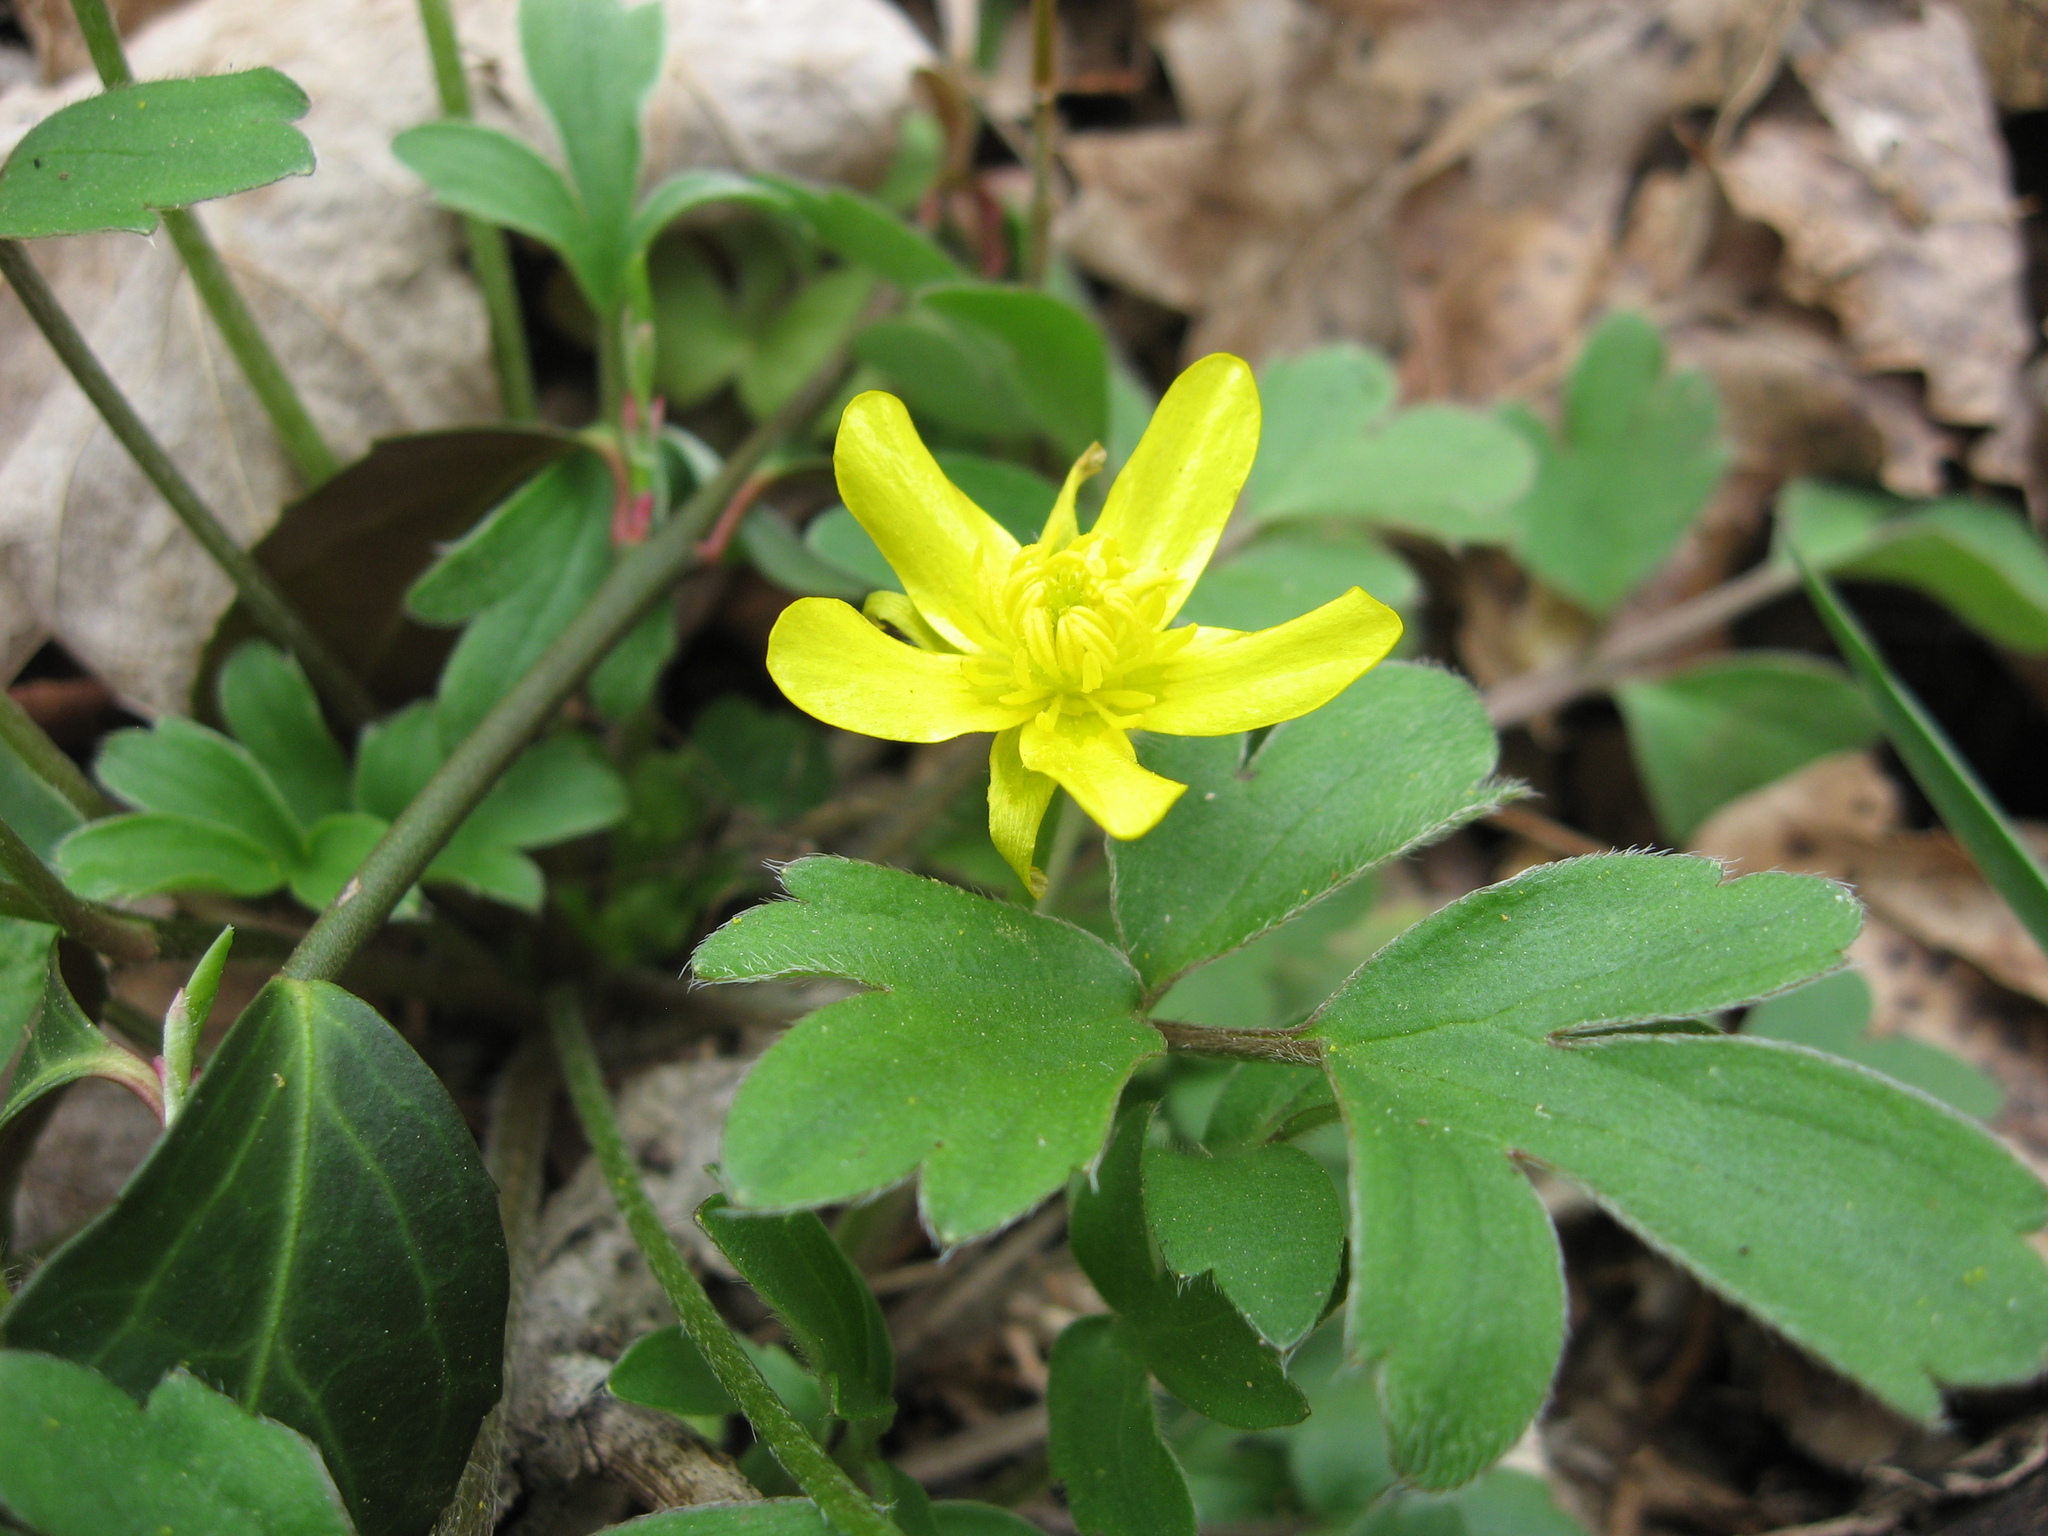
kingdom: Plantae
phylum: Tracheophyta
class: Magnoliopsida
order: Ranunculales
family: Ranunculaceae
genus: Ranunculus
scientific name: Ranunculus fascicularis
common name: Early buttercup
